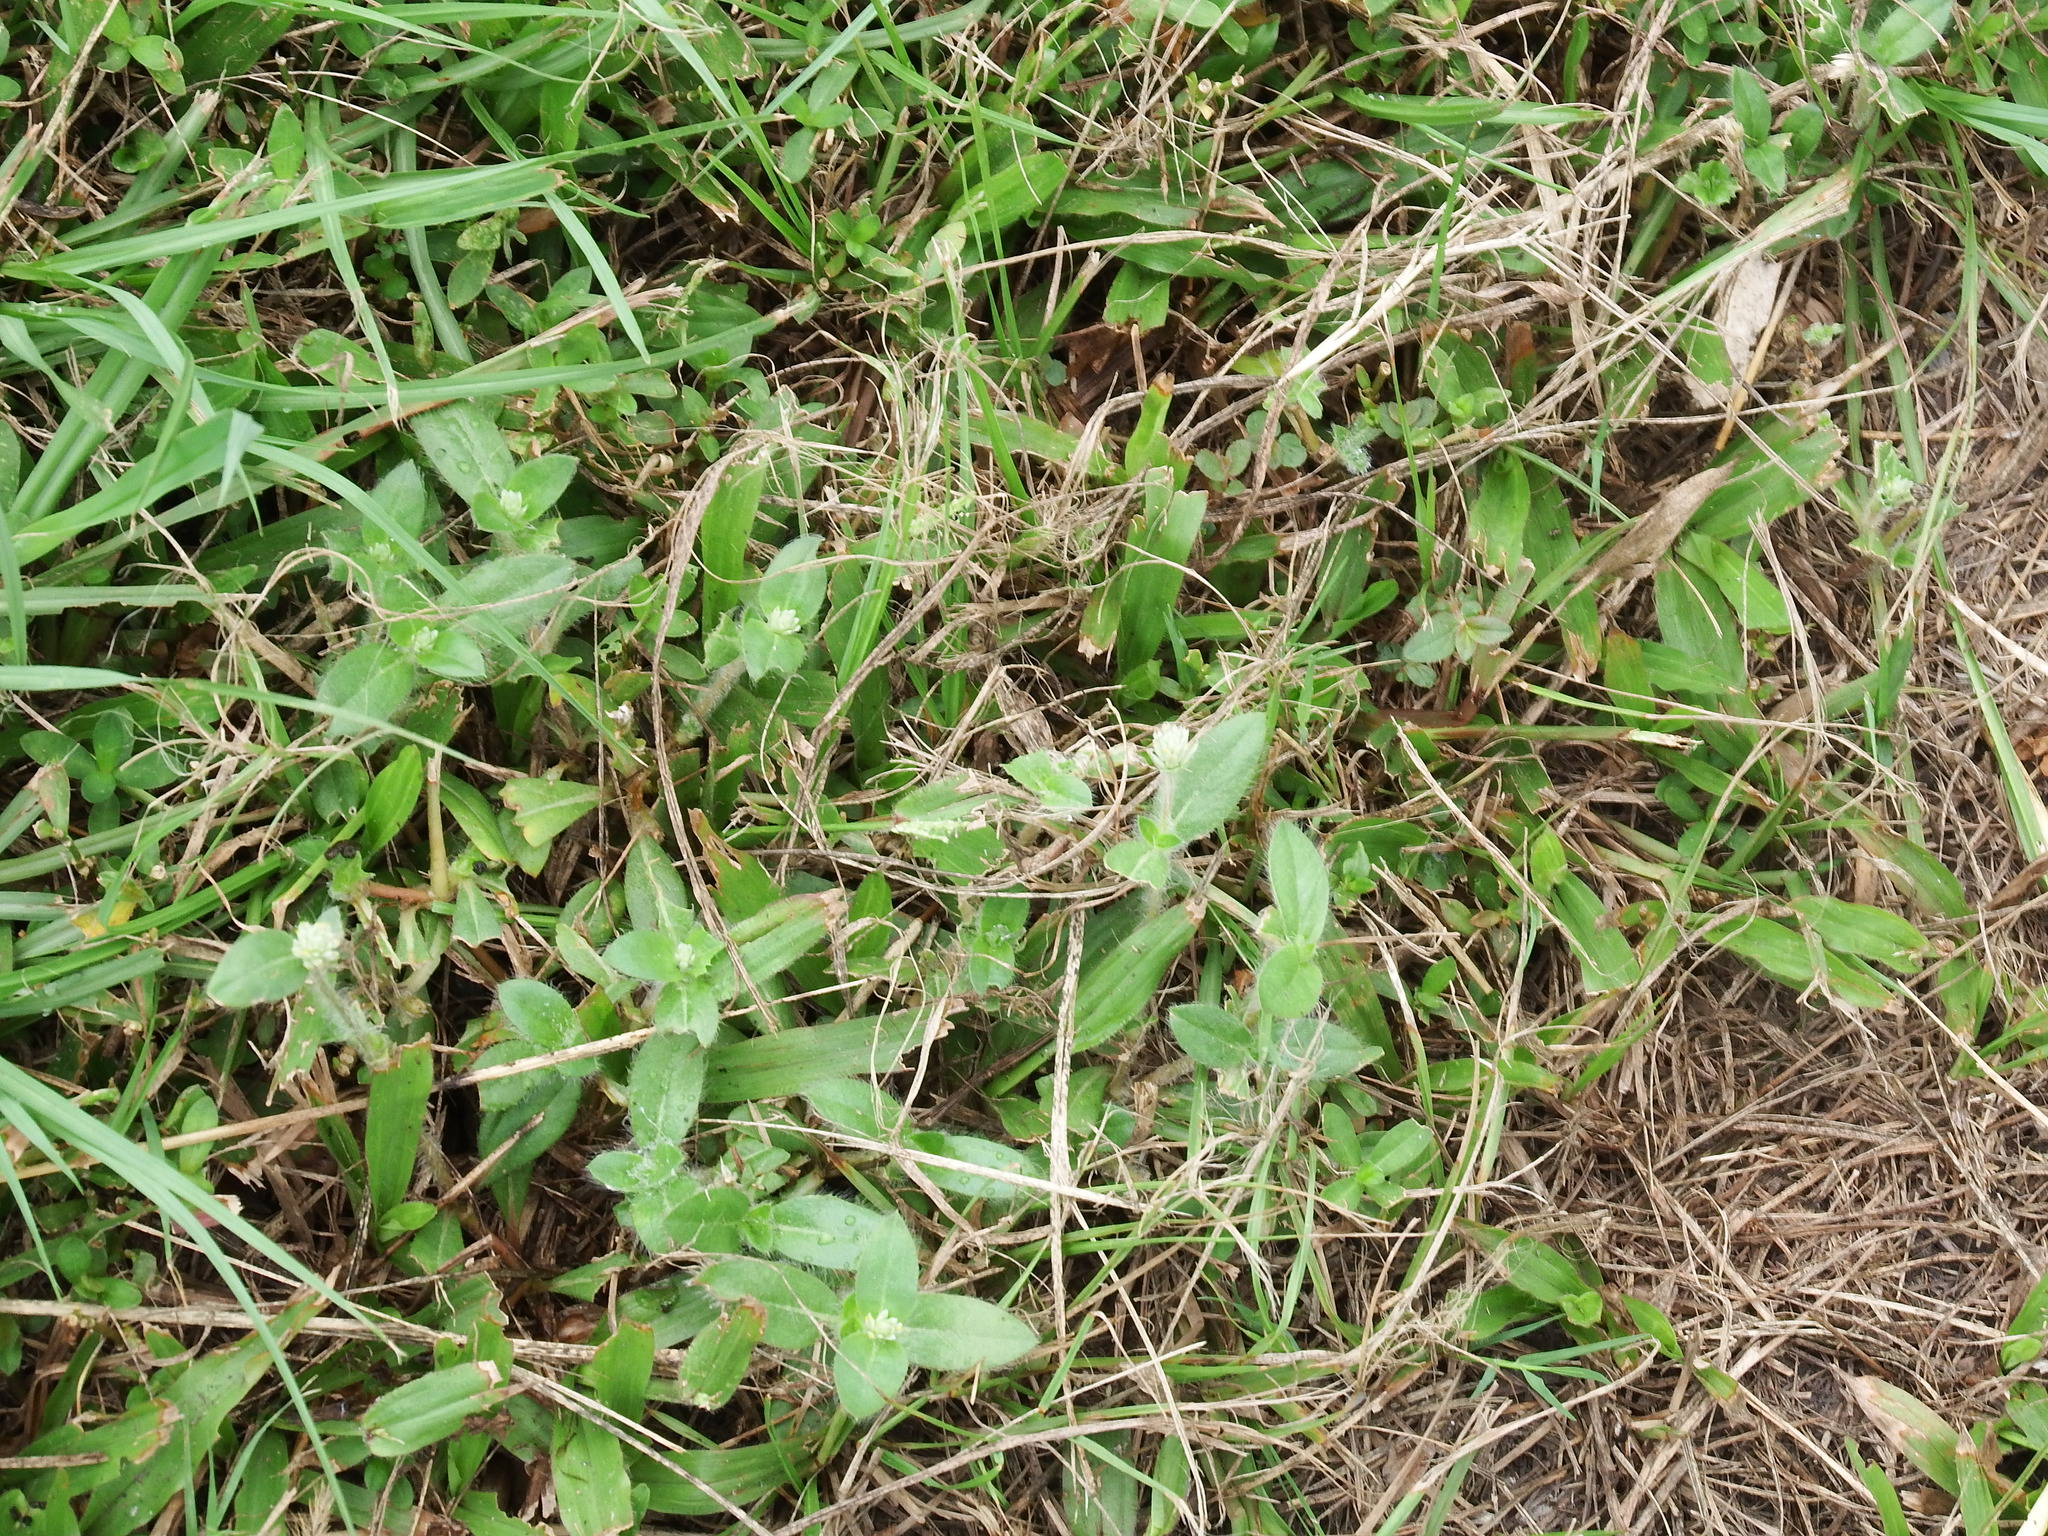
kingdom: Plantae
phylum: Tracheophyta
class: Magnoliopsida
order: Caryophyllales
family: Amaranthaceae
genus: Gomphrena
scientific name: Gomphrena celosioides
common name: Gomphrena-weed
